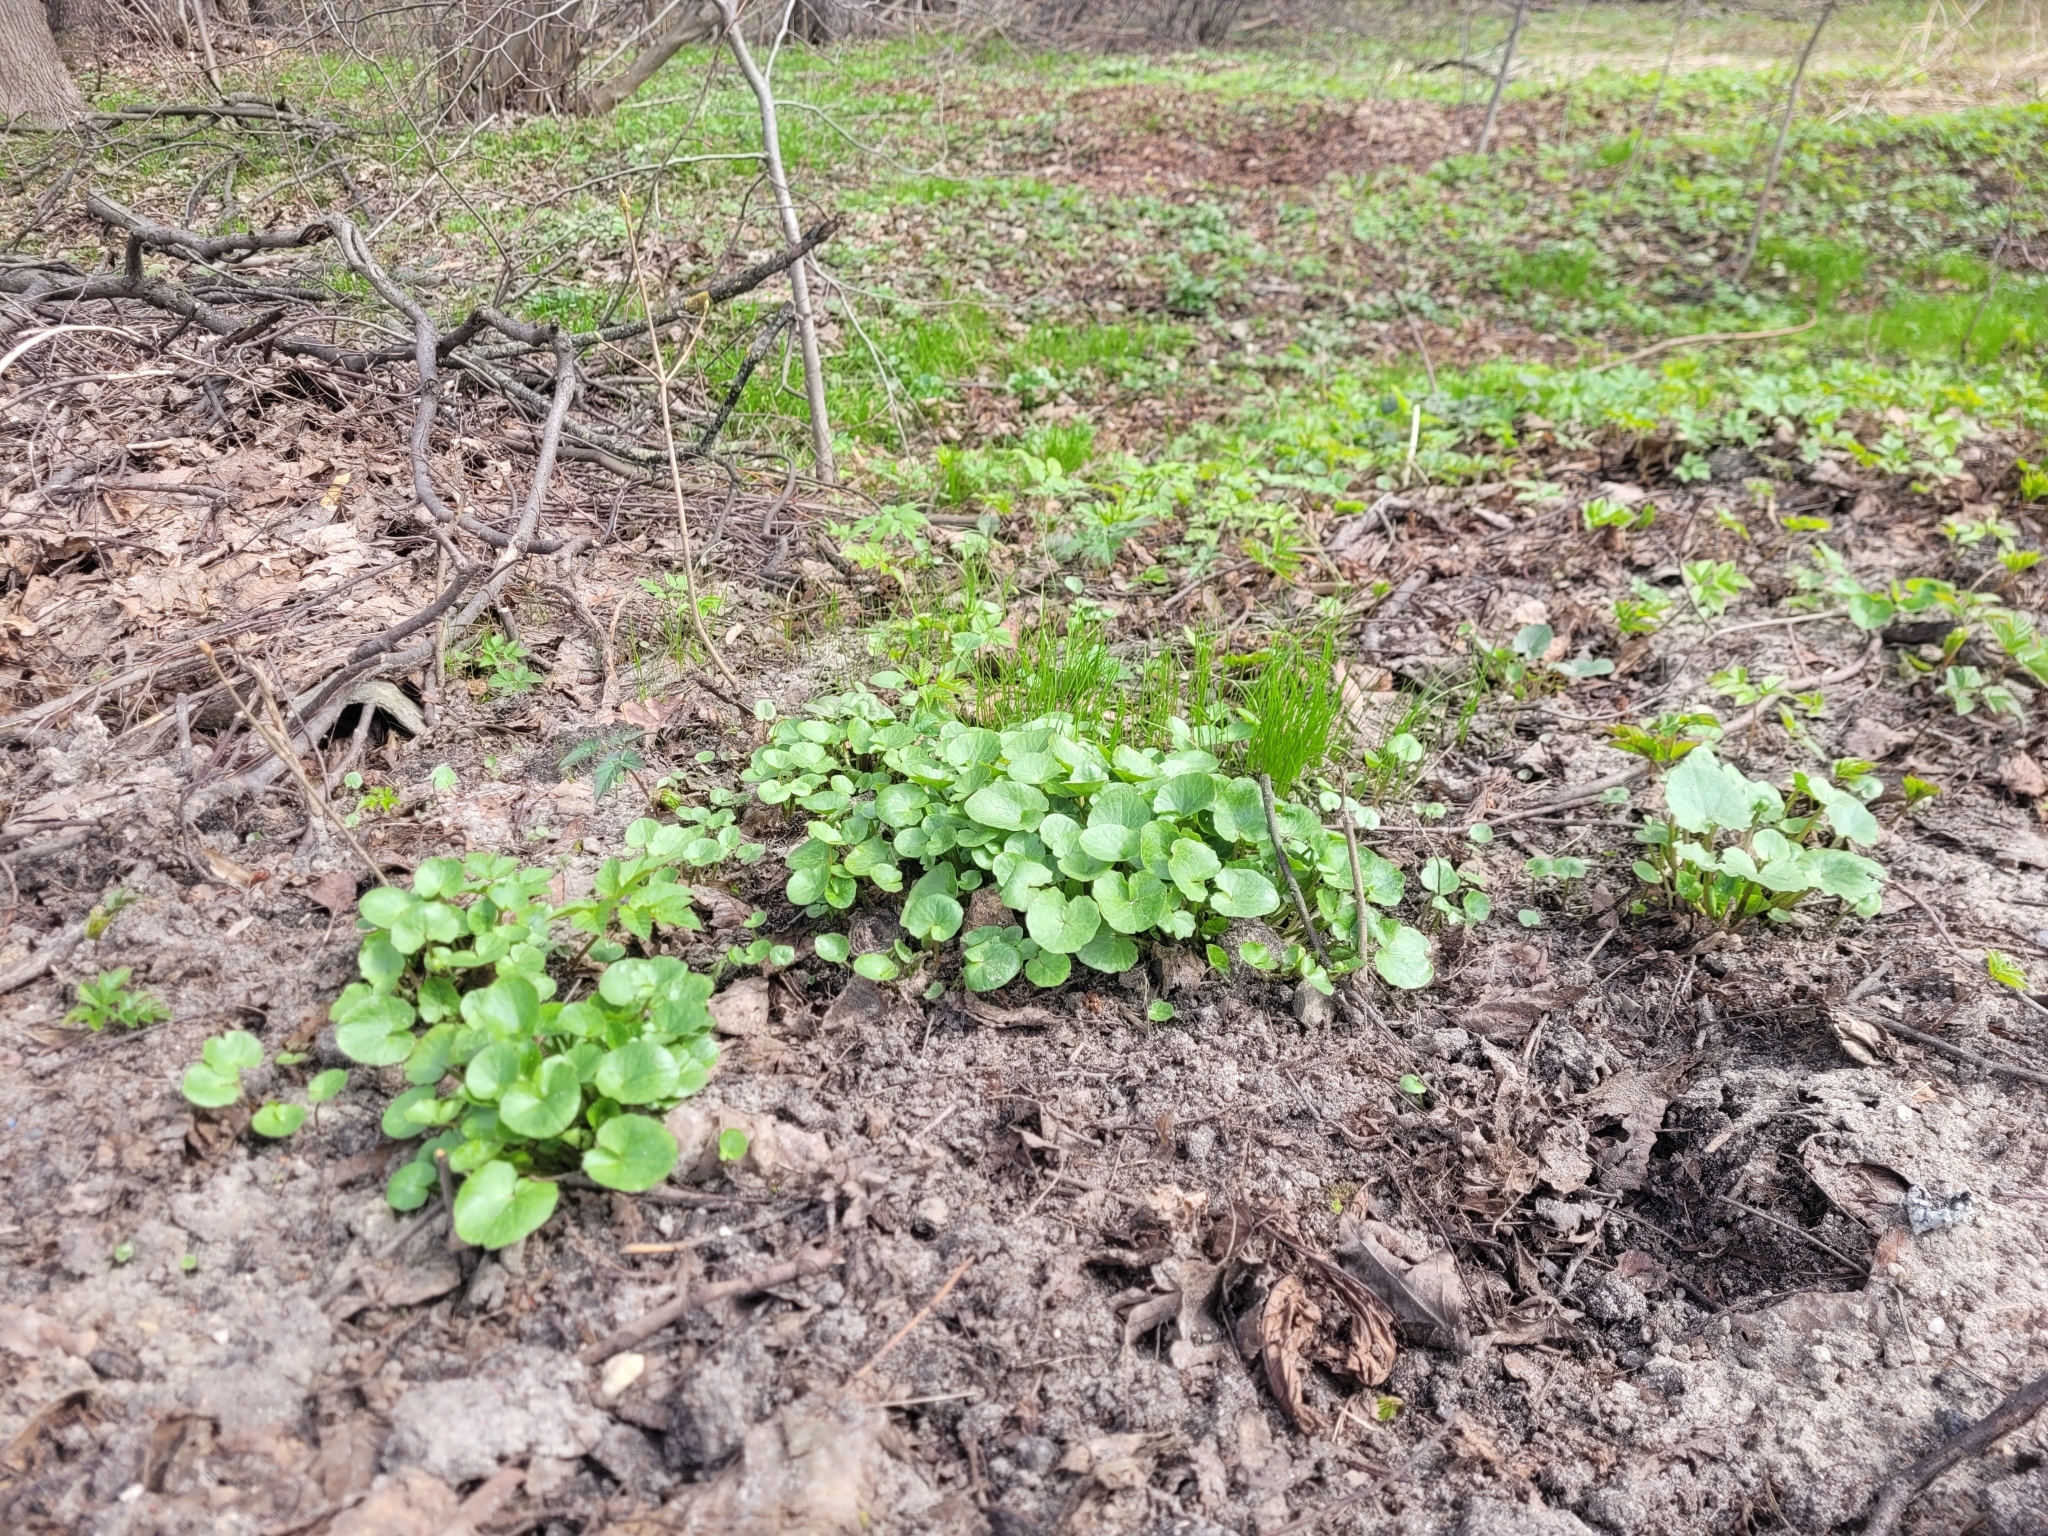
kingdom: Plantae
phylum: Tracheophyta
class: Magnoliopsida
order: Ranunculales
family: Ranunculaceae
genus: Ficaria
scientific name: Ficaria verna
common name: Lesser celandine
